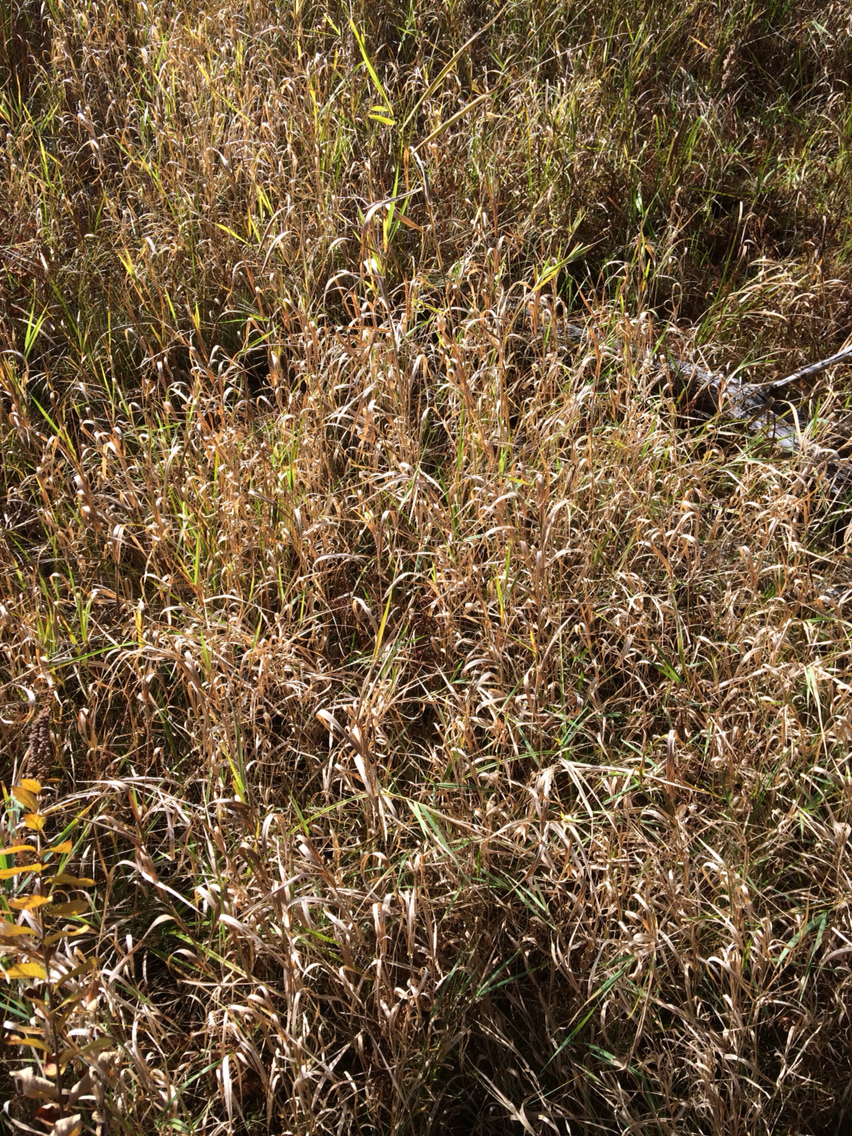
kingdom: Plantae
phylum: Tracheophyta
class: Liliopsida
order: Poales
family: Poaceae
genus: Phalaris
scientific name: Phalaris arundinacea
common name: Reed canary-grass
